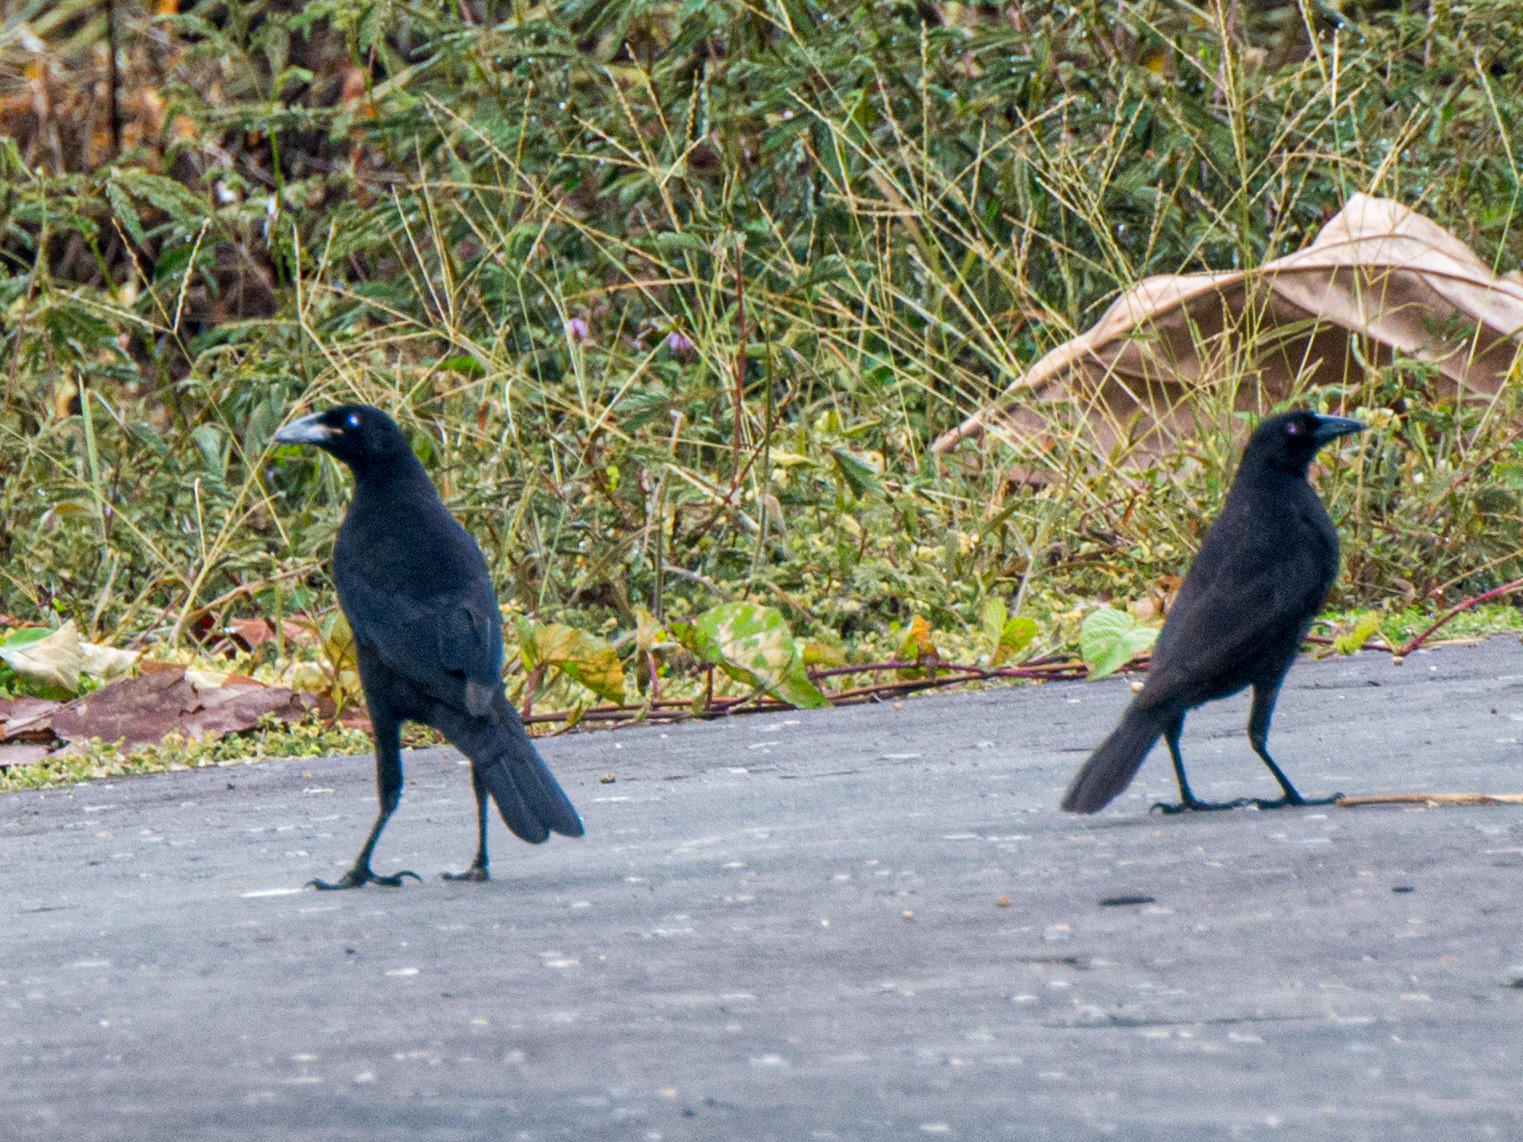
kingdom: Animalia
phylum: Chordata
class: Aves
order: Passeriformes
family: Icteridae
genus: Molothrus
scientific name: Molothrus oryzivorus
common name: Giant cowbird
